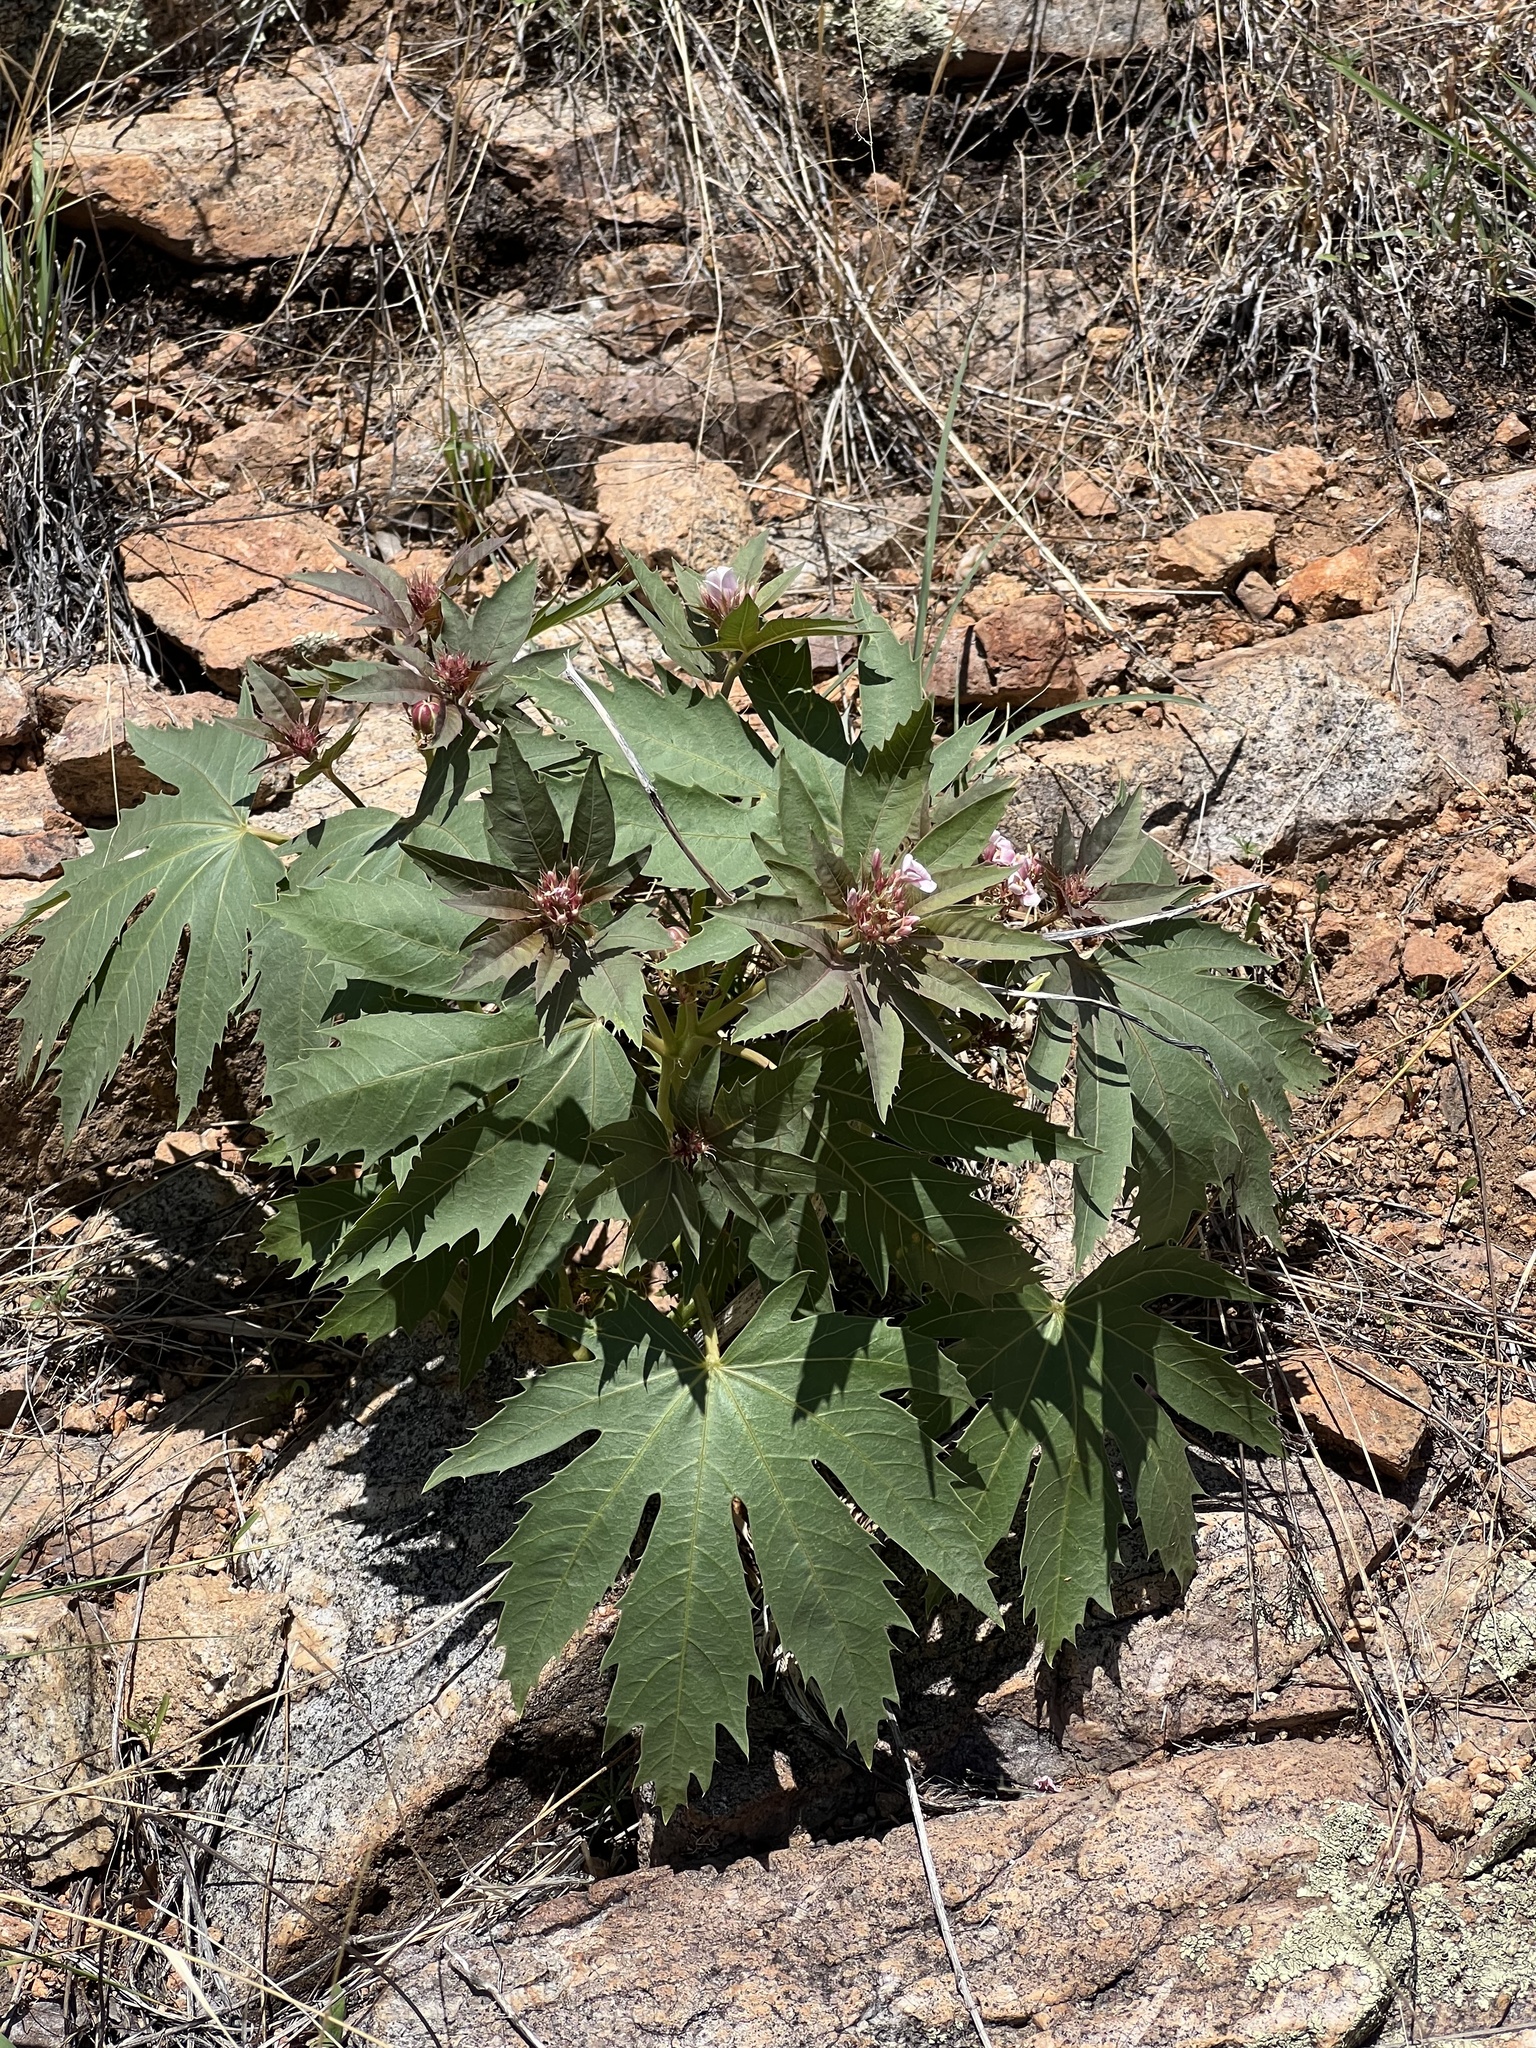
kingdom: Plantae
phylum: Tracheophyta
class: Magnoliopsida
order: Malpighiales
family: Euphorbiaceae
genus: Jatropha
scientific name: Jatropha macrorhiza
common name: Ragged nettlespurge
